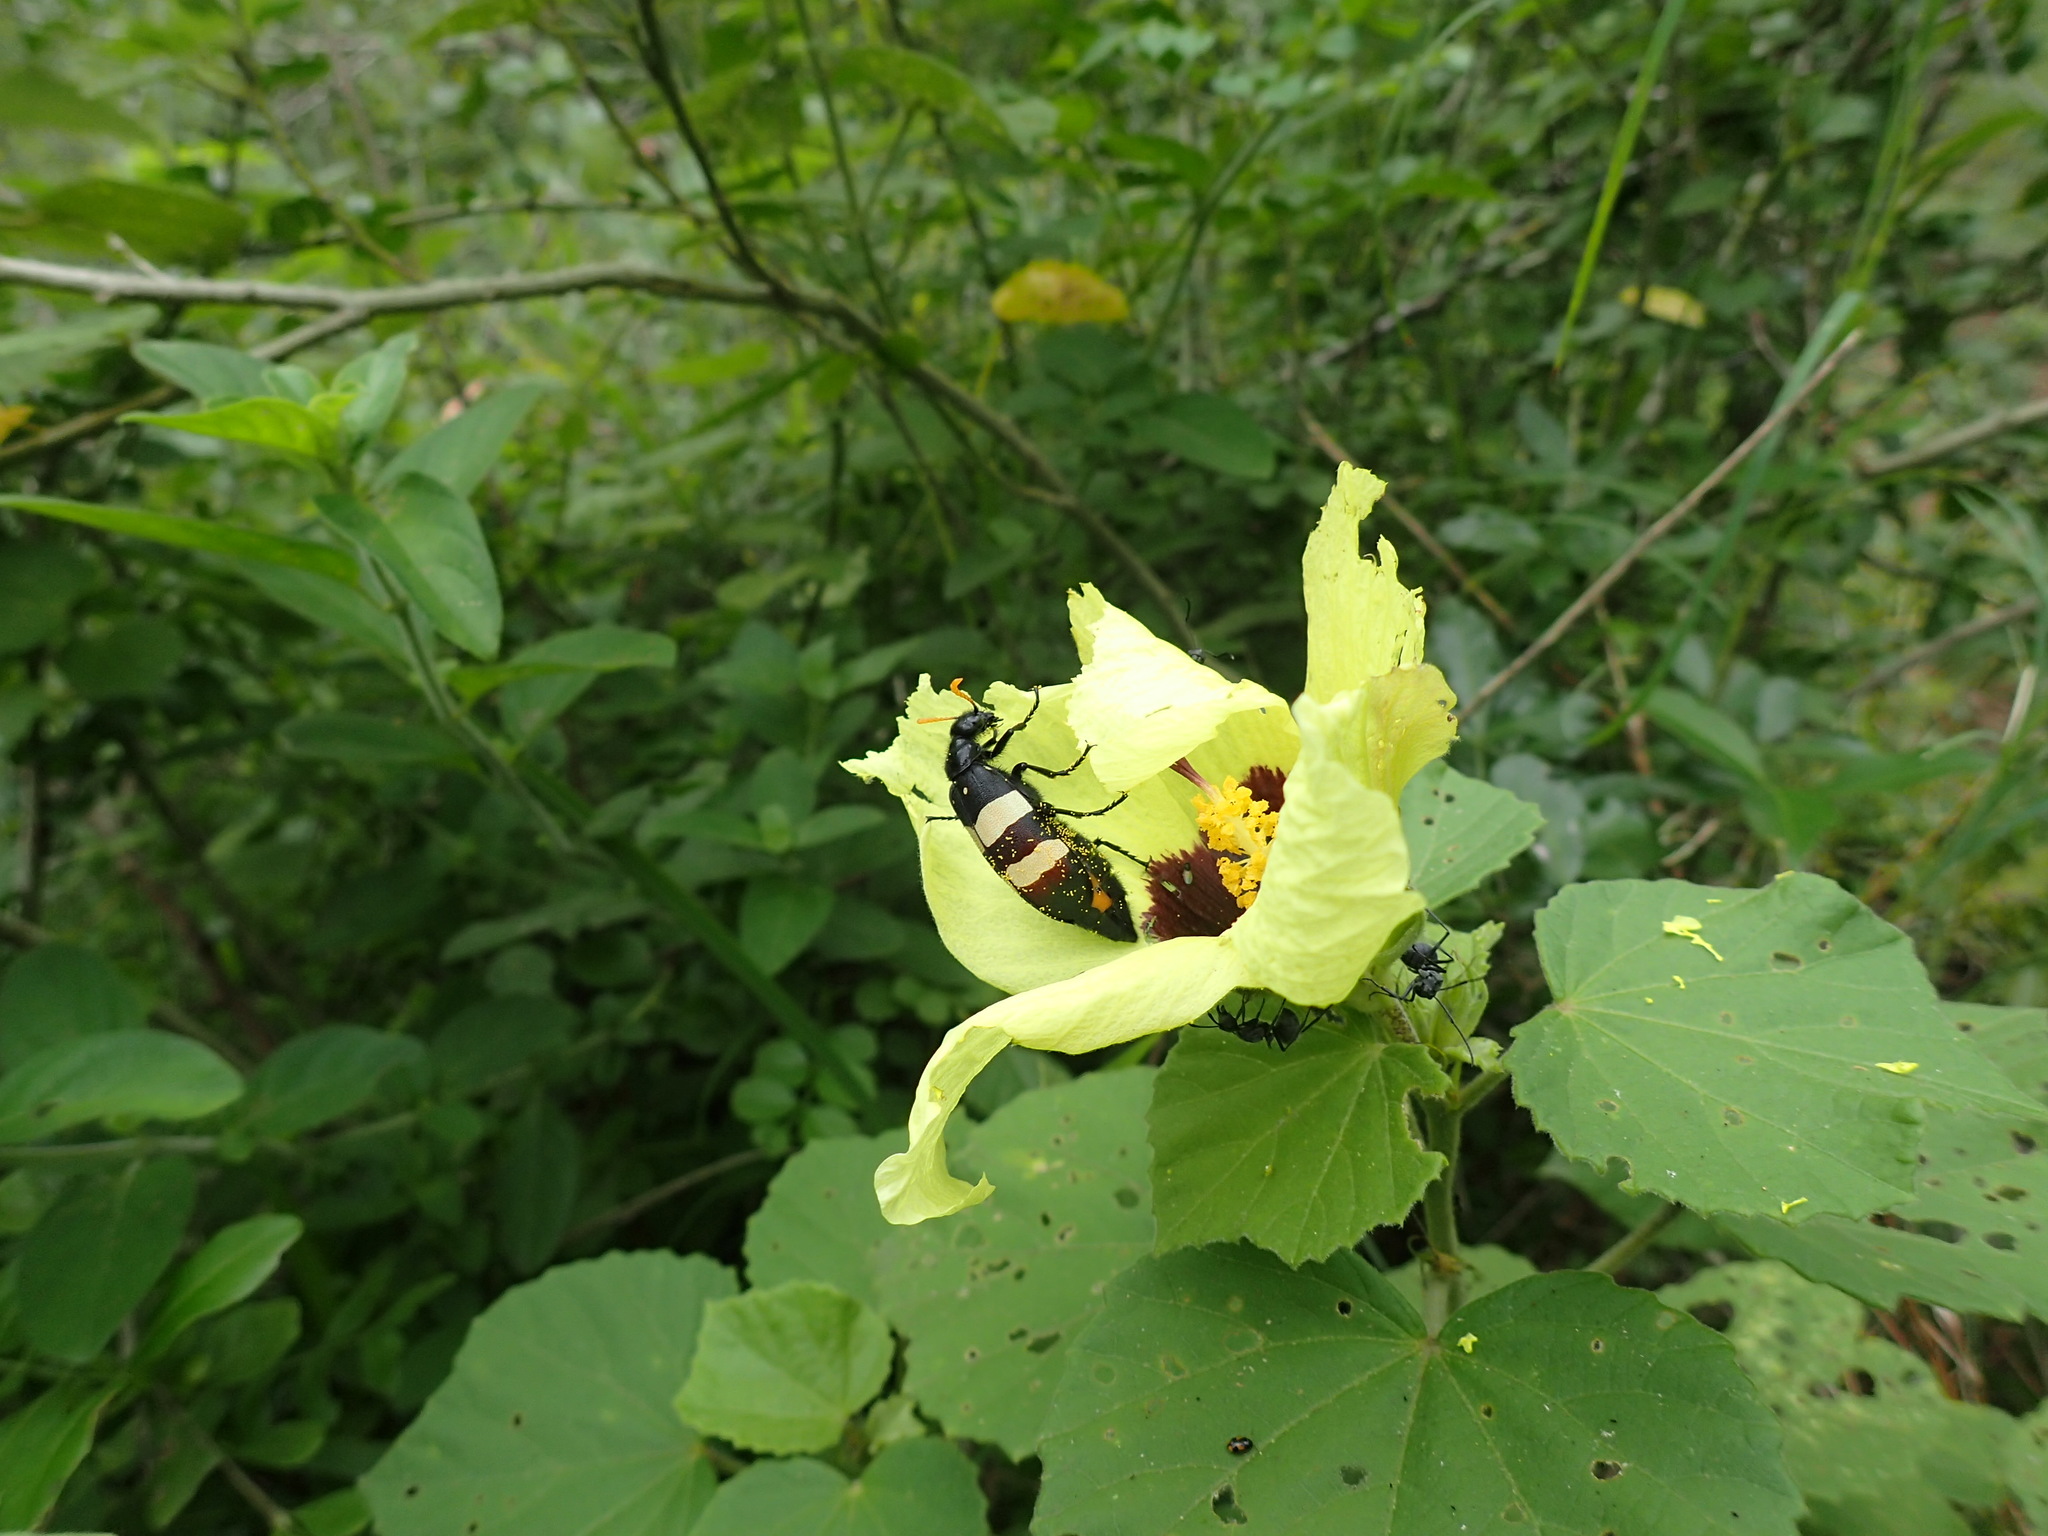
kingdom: Animalia
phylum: Arthropoda
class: Insecta
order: Coleoptera
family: Meloidae
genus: Hycleus
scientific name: Hycleus
